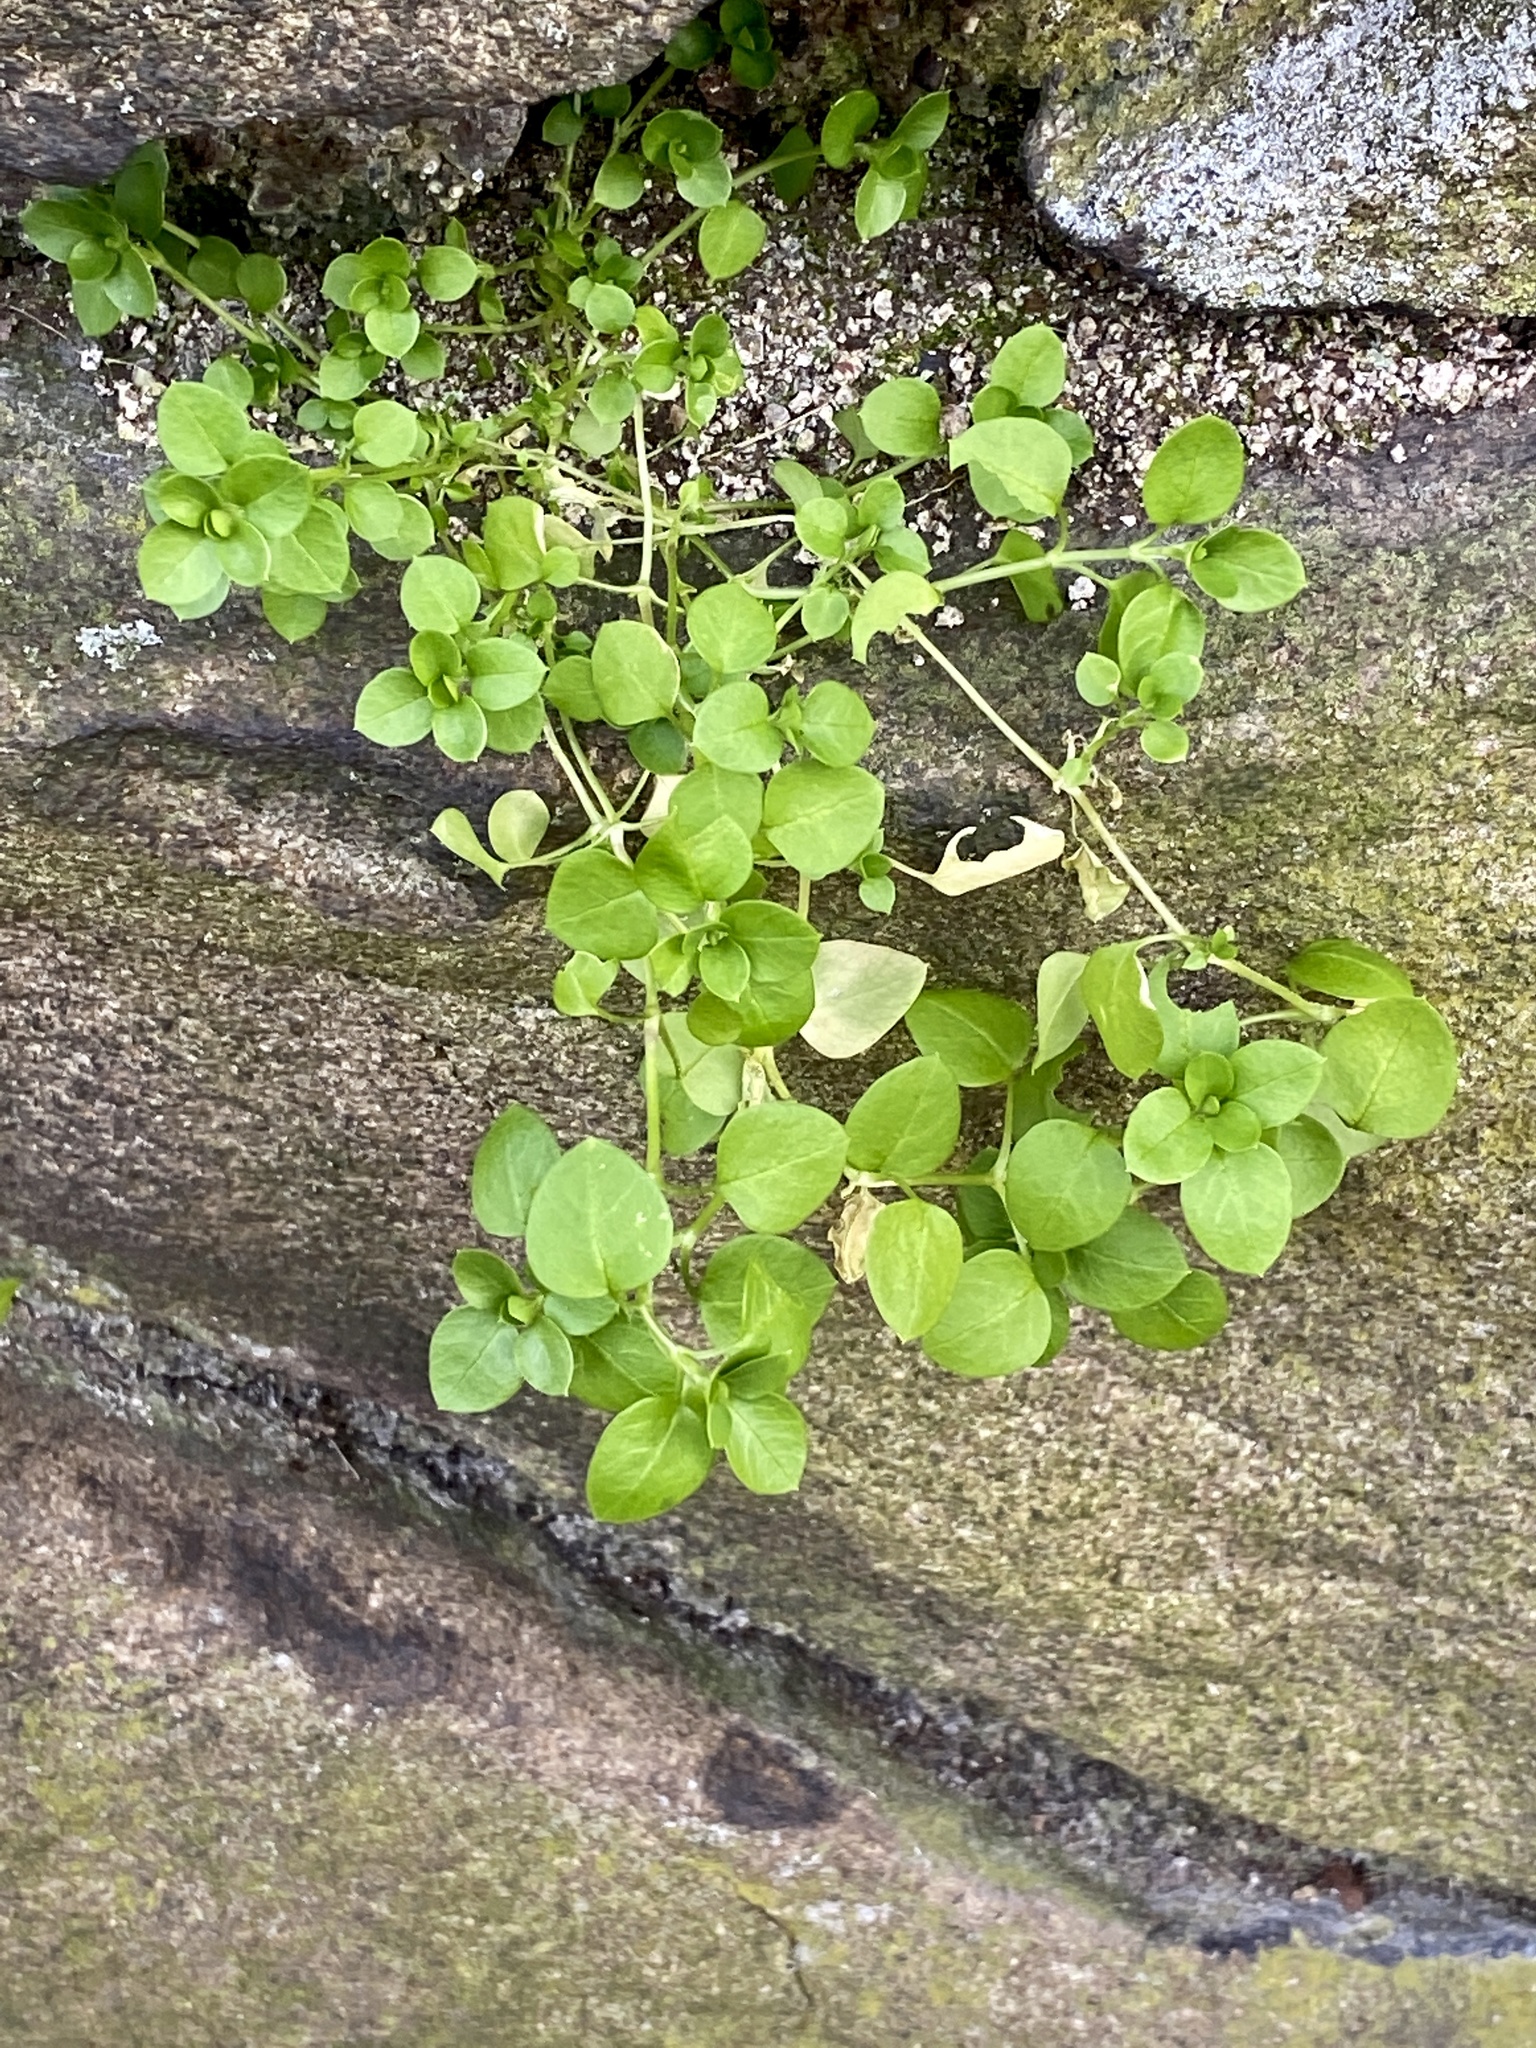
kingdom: Plantae
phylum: Tracheophyta
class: Magnoliopsida
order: Caryophyllales
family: Caryophyllaceae
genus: Stellaria
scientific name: Stellaria media
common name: Common chickweed
